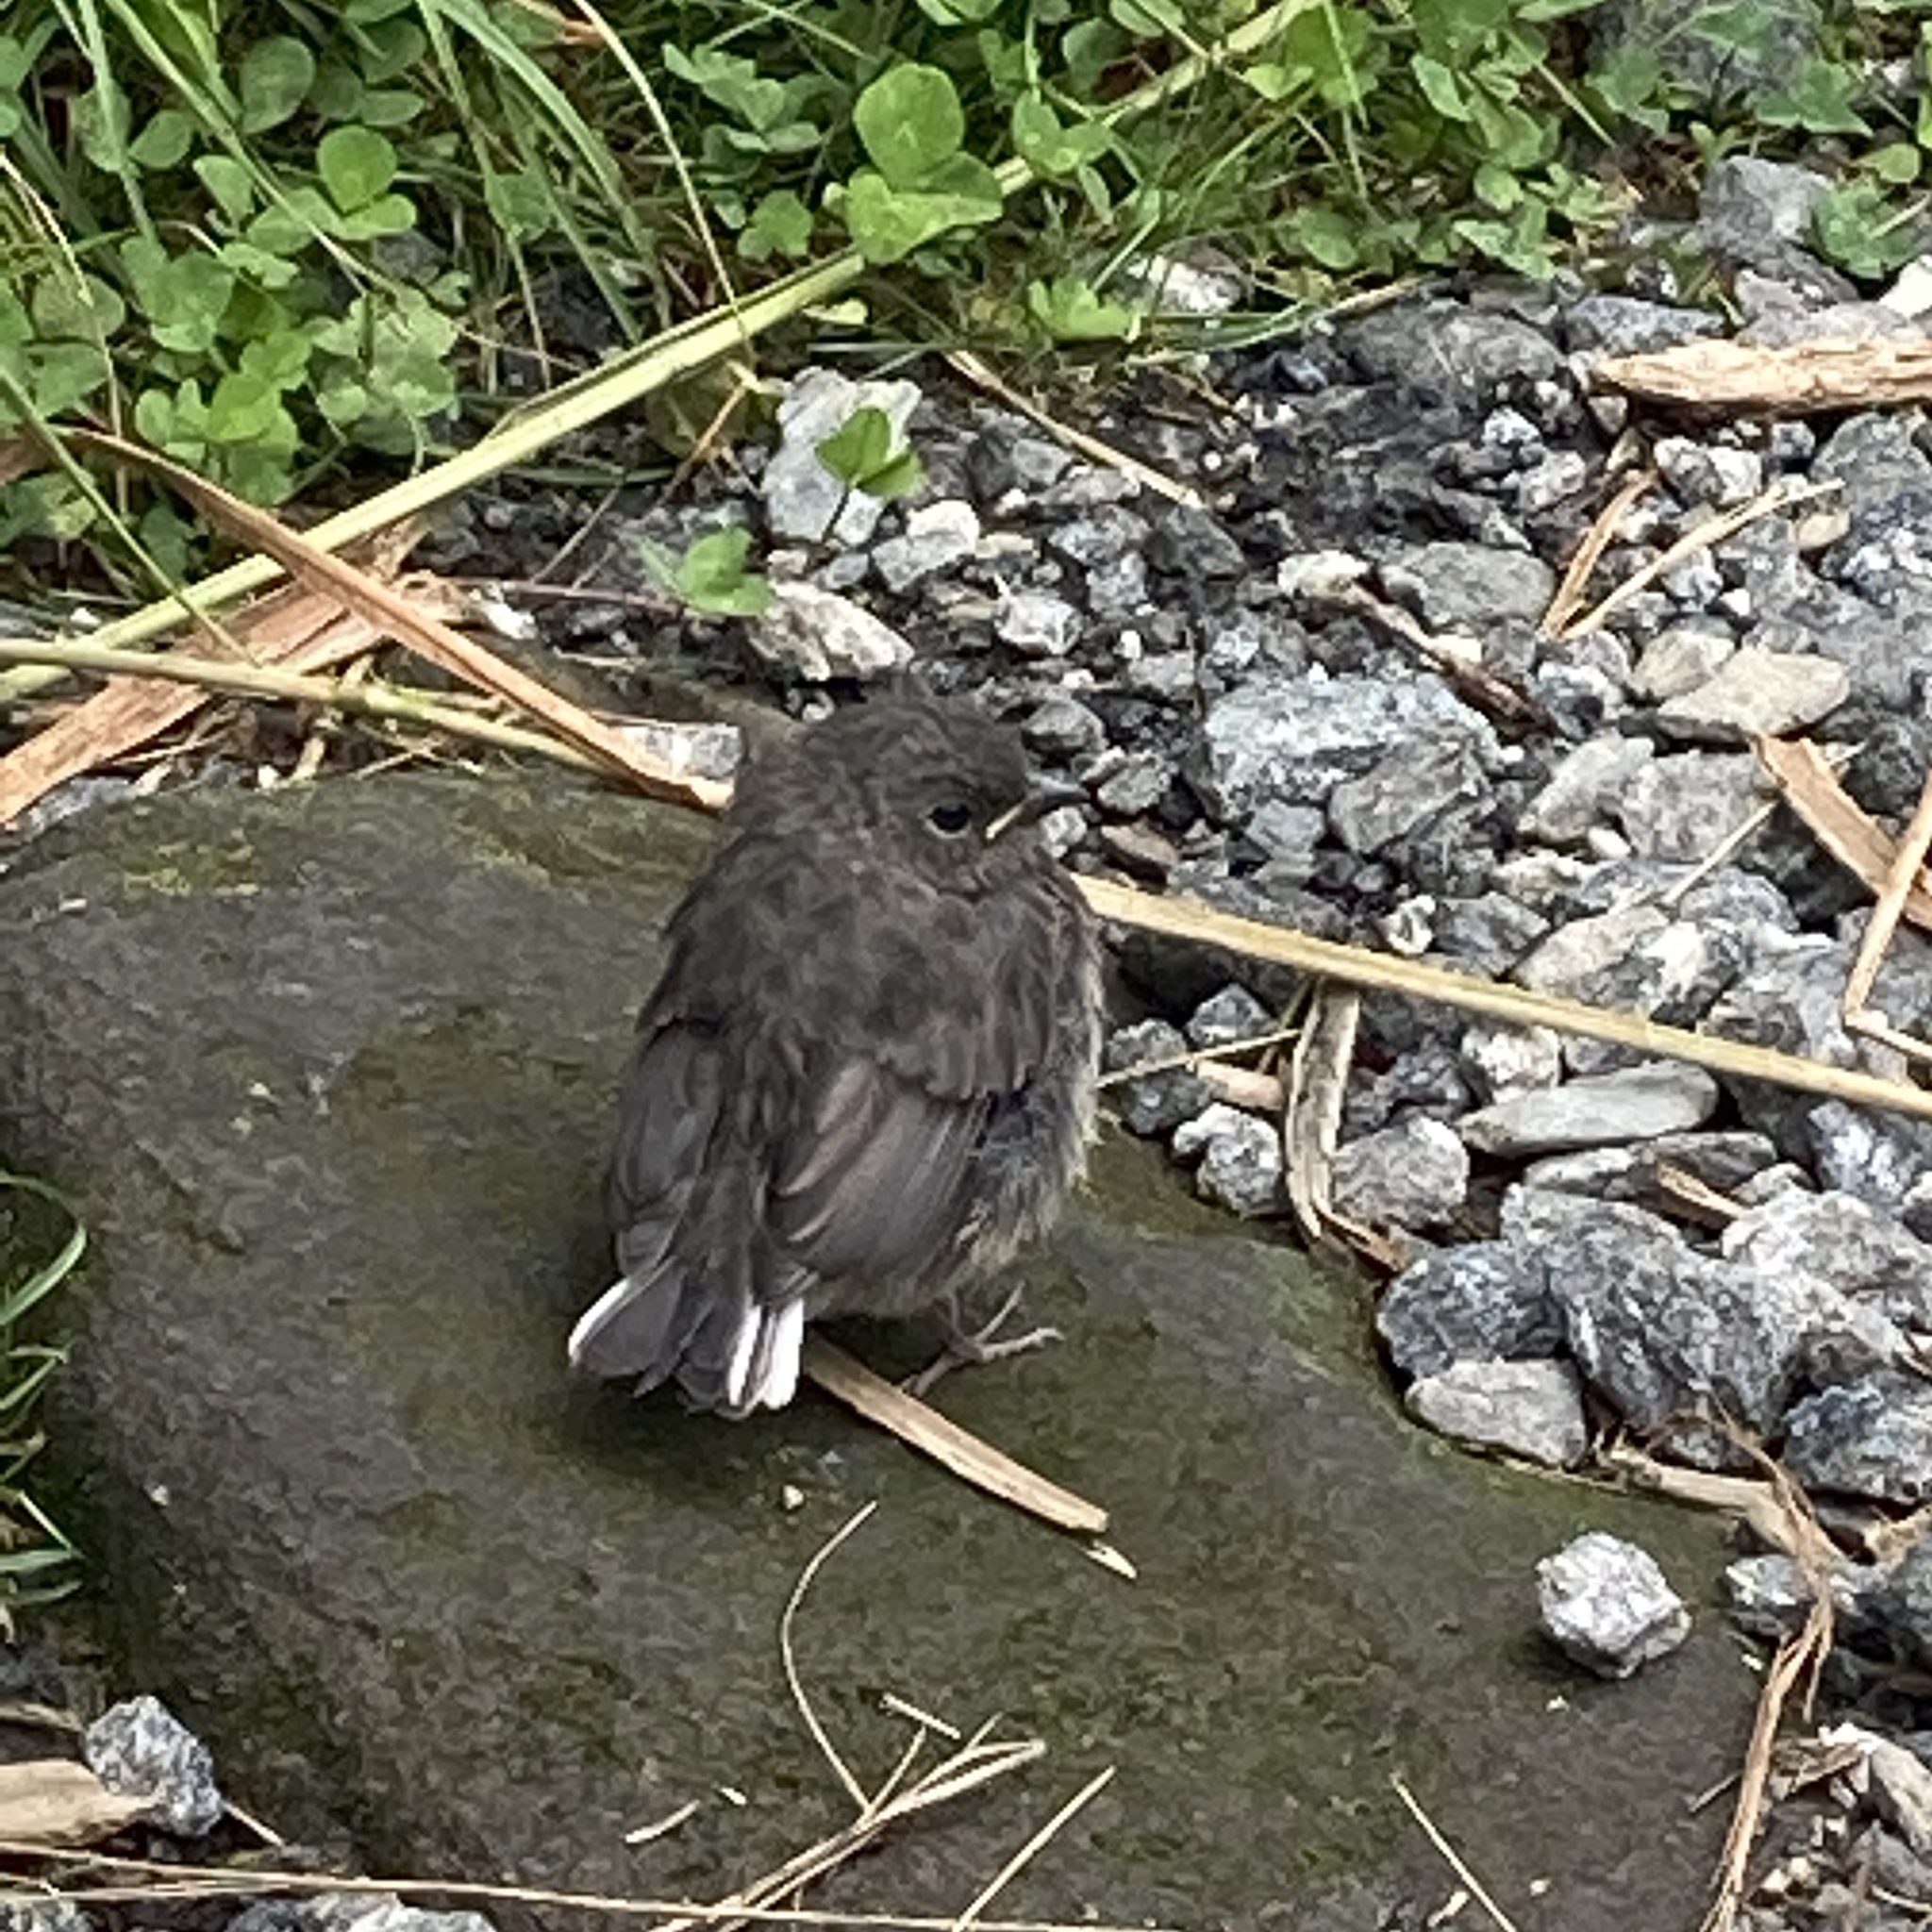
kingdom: Animalia
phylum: Chordata
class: Aves
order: Passeriformes
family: Passerellidae
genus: Junco
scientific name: Junco hyemalis
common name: Dark-eyed junco
